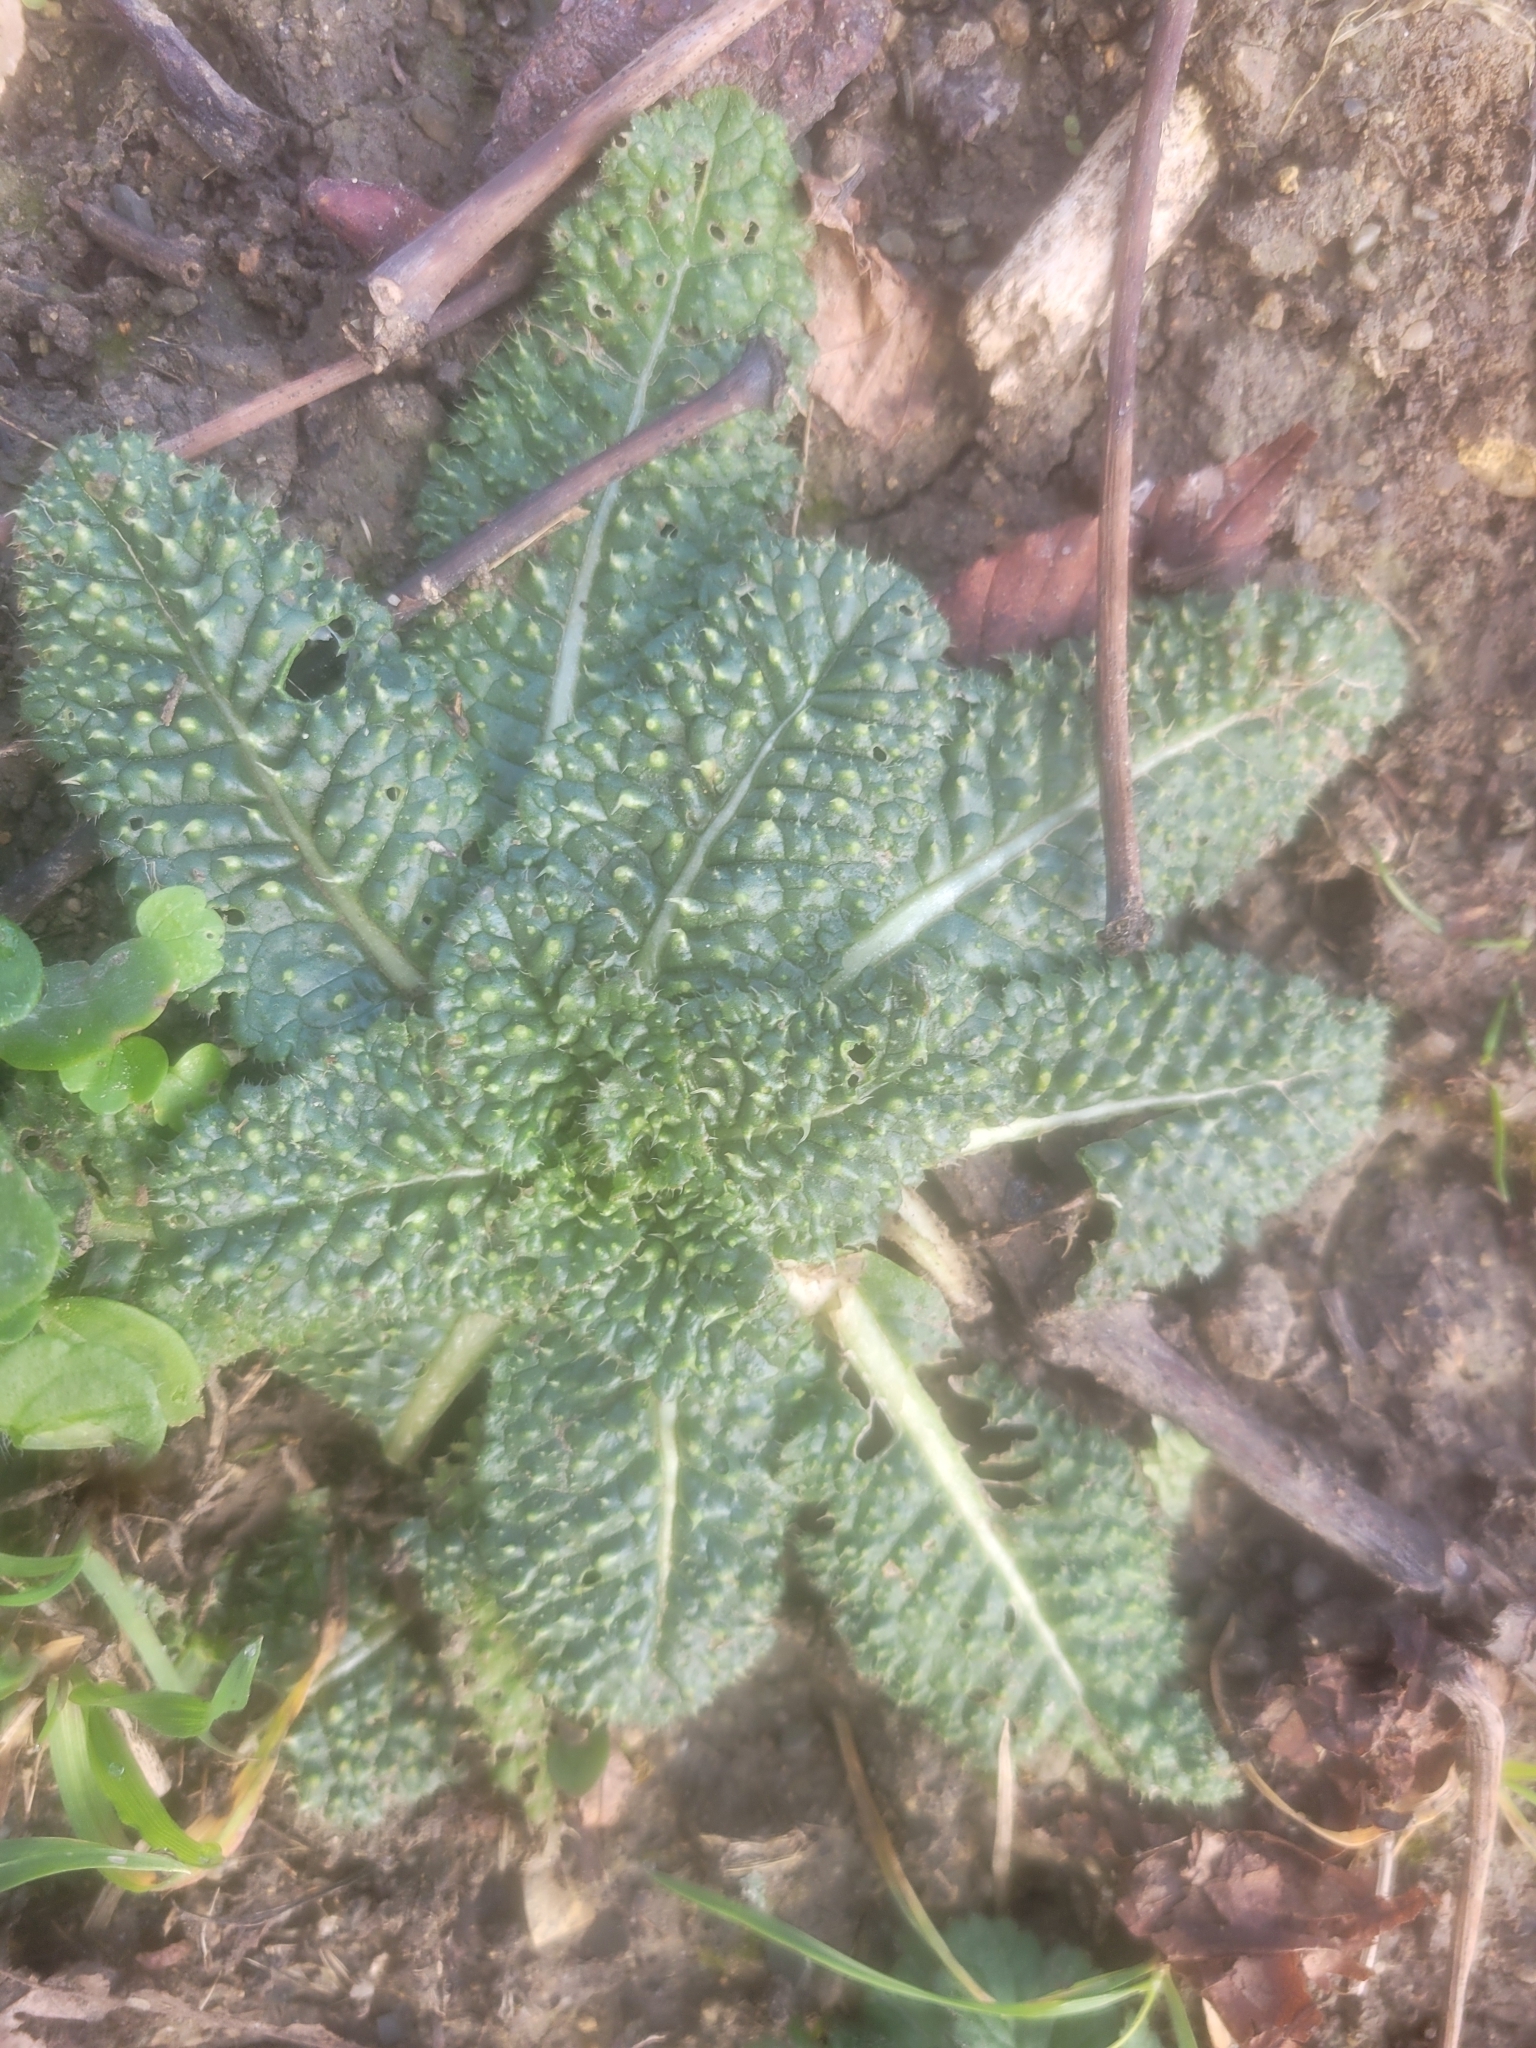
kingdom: Plantae
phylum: Tracheophyta
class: Magnoliopsida
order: Dipsacales
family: Caprifoliaceae
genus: Dipsacus
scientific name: Dipsacus fullonum
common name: Teasel
